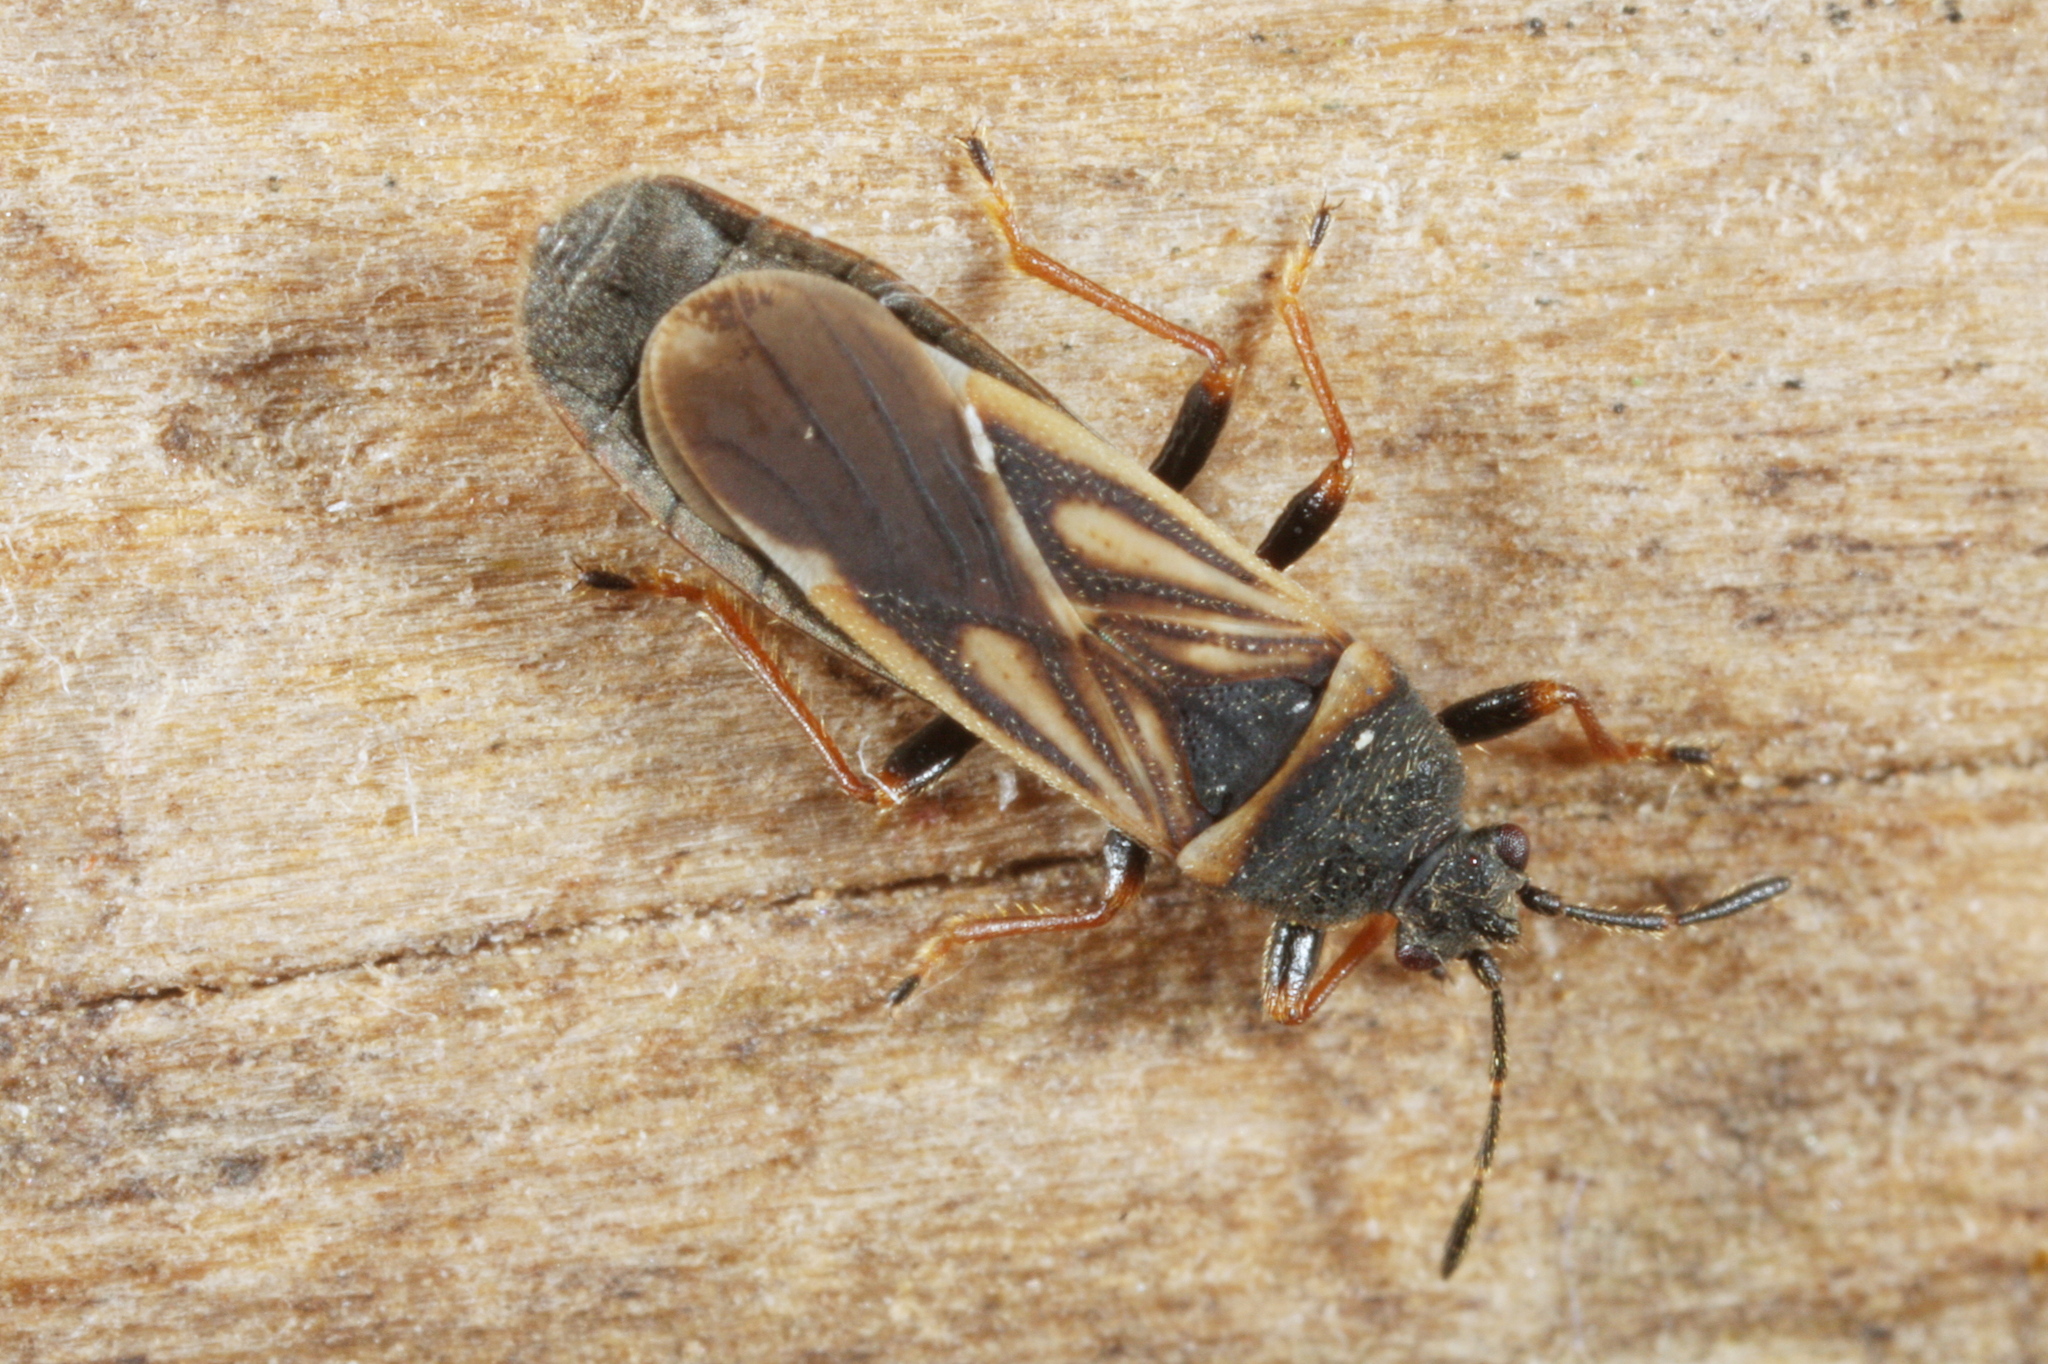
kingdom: Animalia
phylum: Arthropoda
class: Insecta
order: Hemiptera
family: Blissidae
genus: Ischnodemus
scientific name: Ischnodemus sabuleti
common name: European cinchbug
